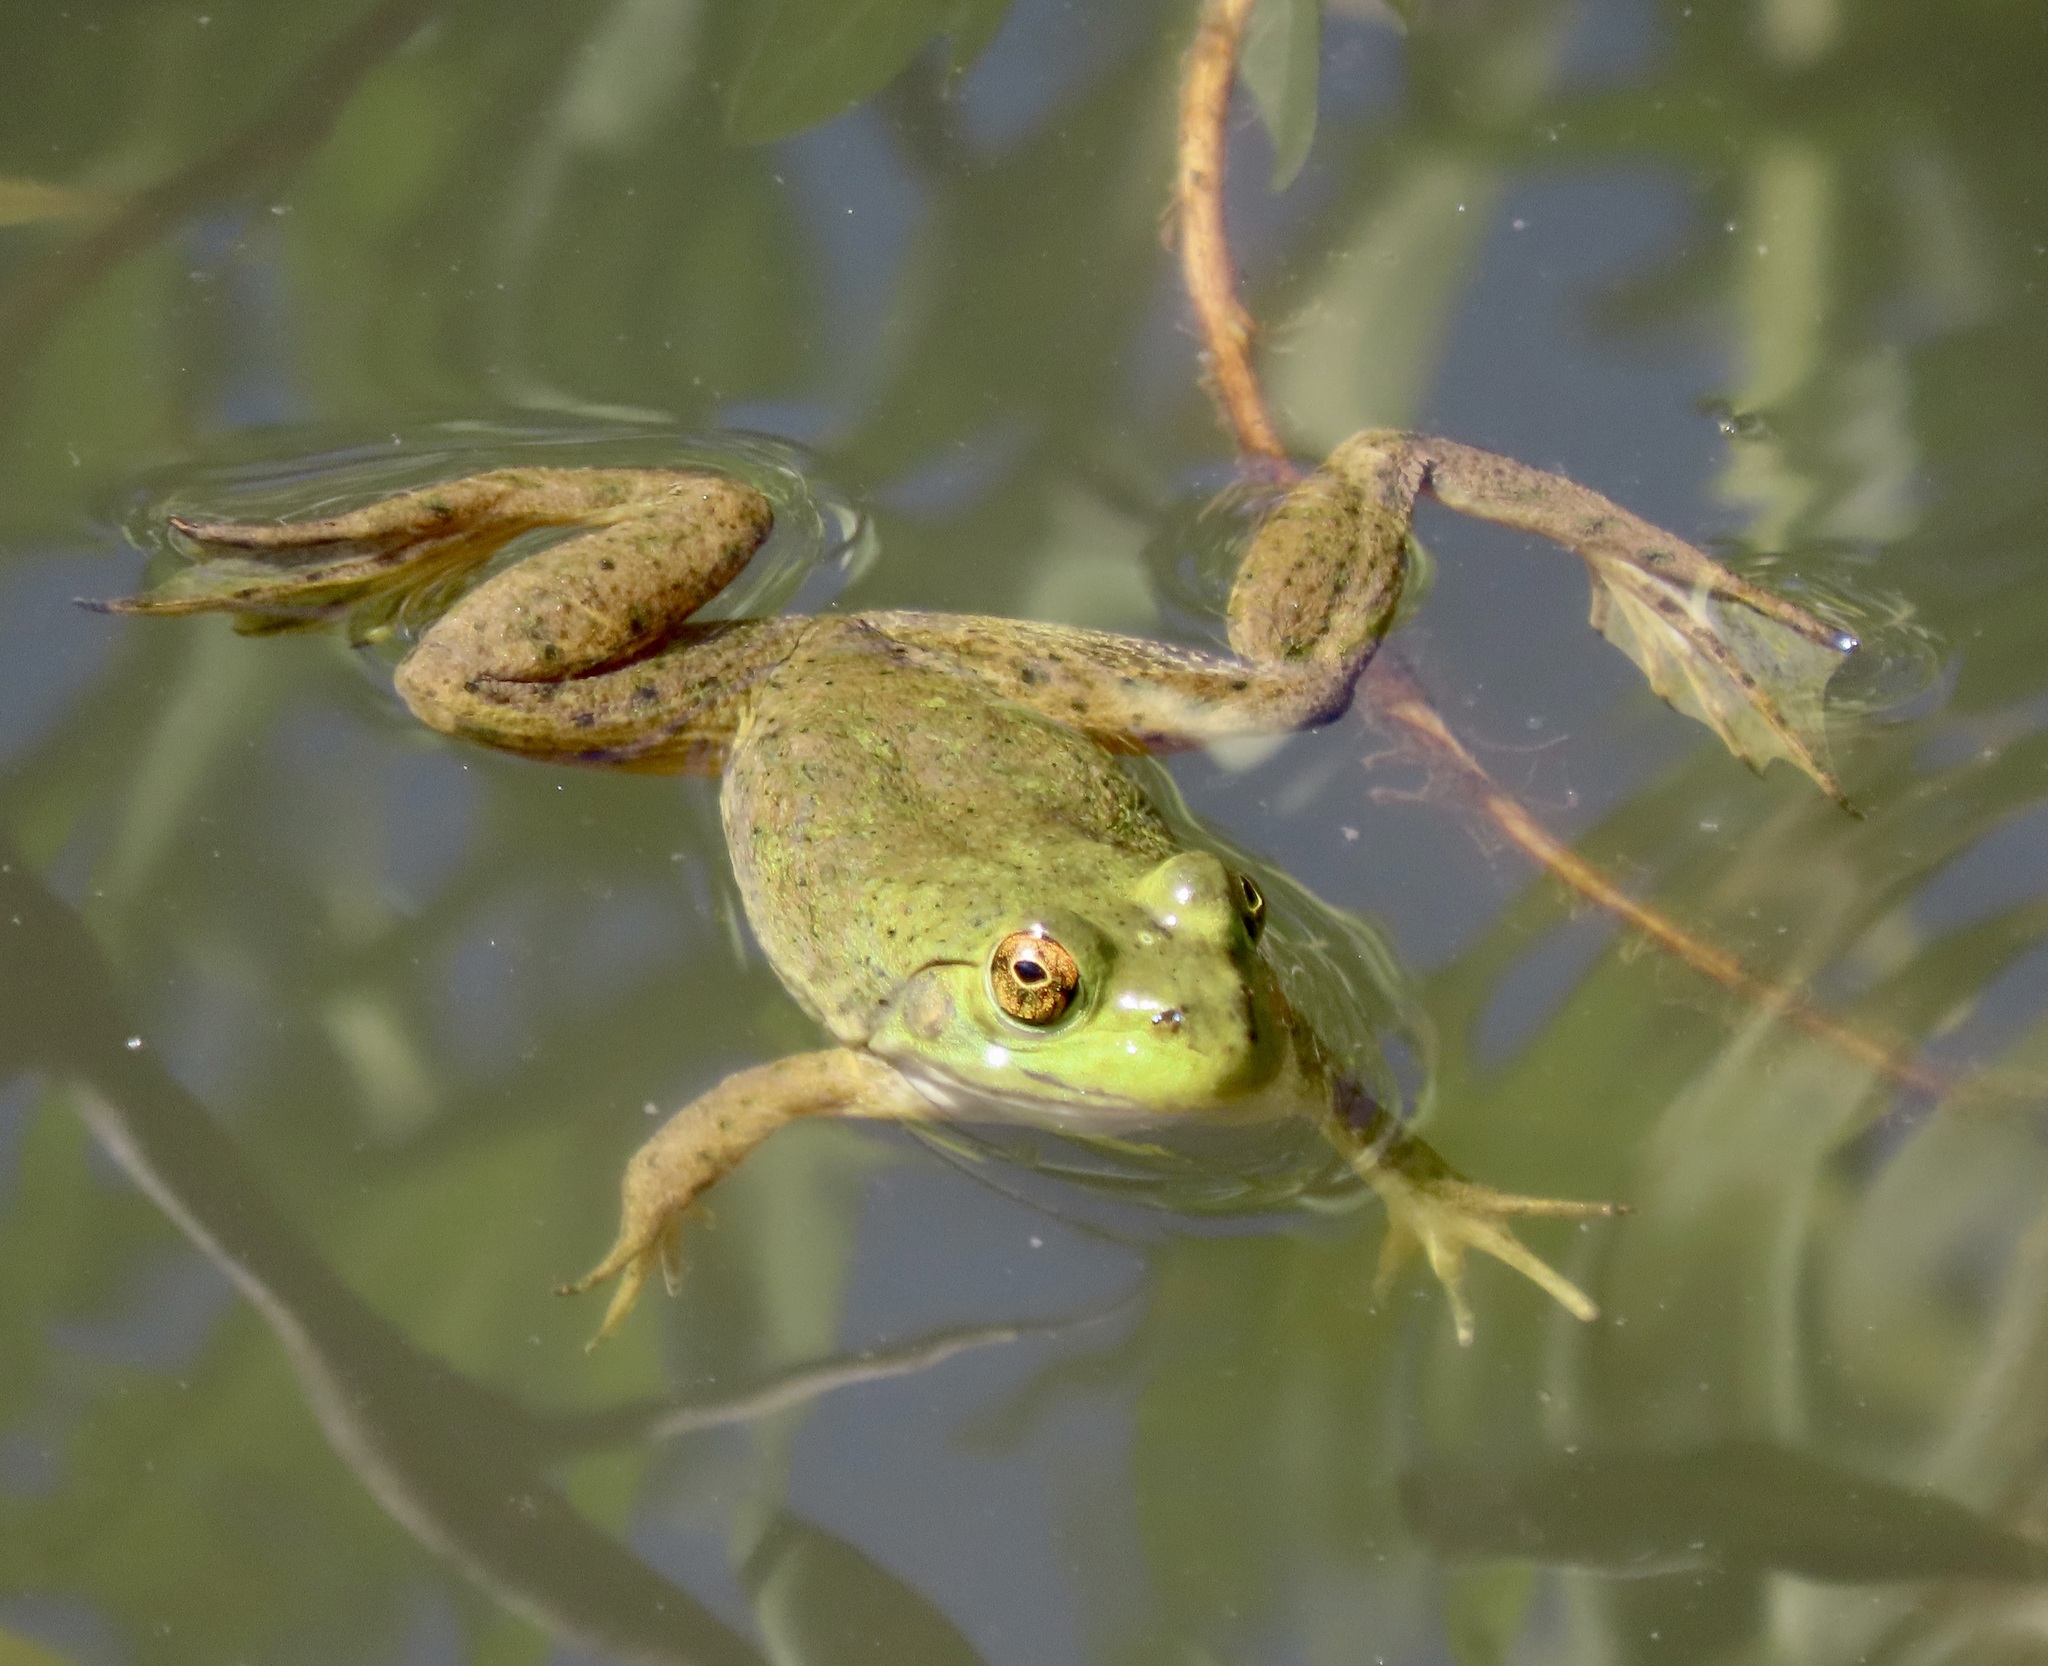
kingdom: Animalia
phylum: Chordata
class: Amphibia
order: Anura
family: Ranidae
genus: Lithobates
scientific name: Lithobates catesbeianus
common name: American bullfrog
